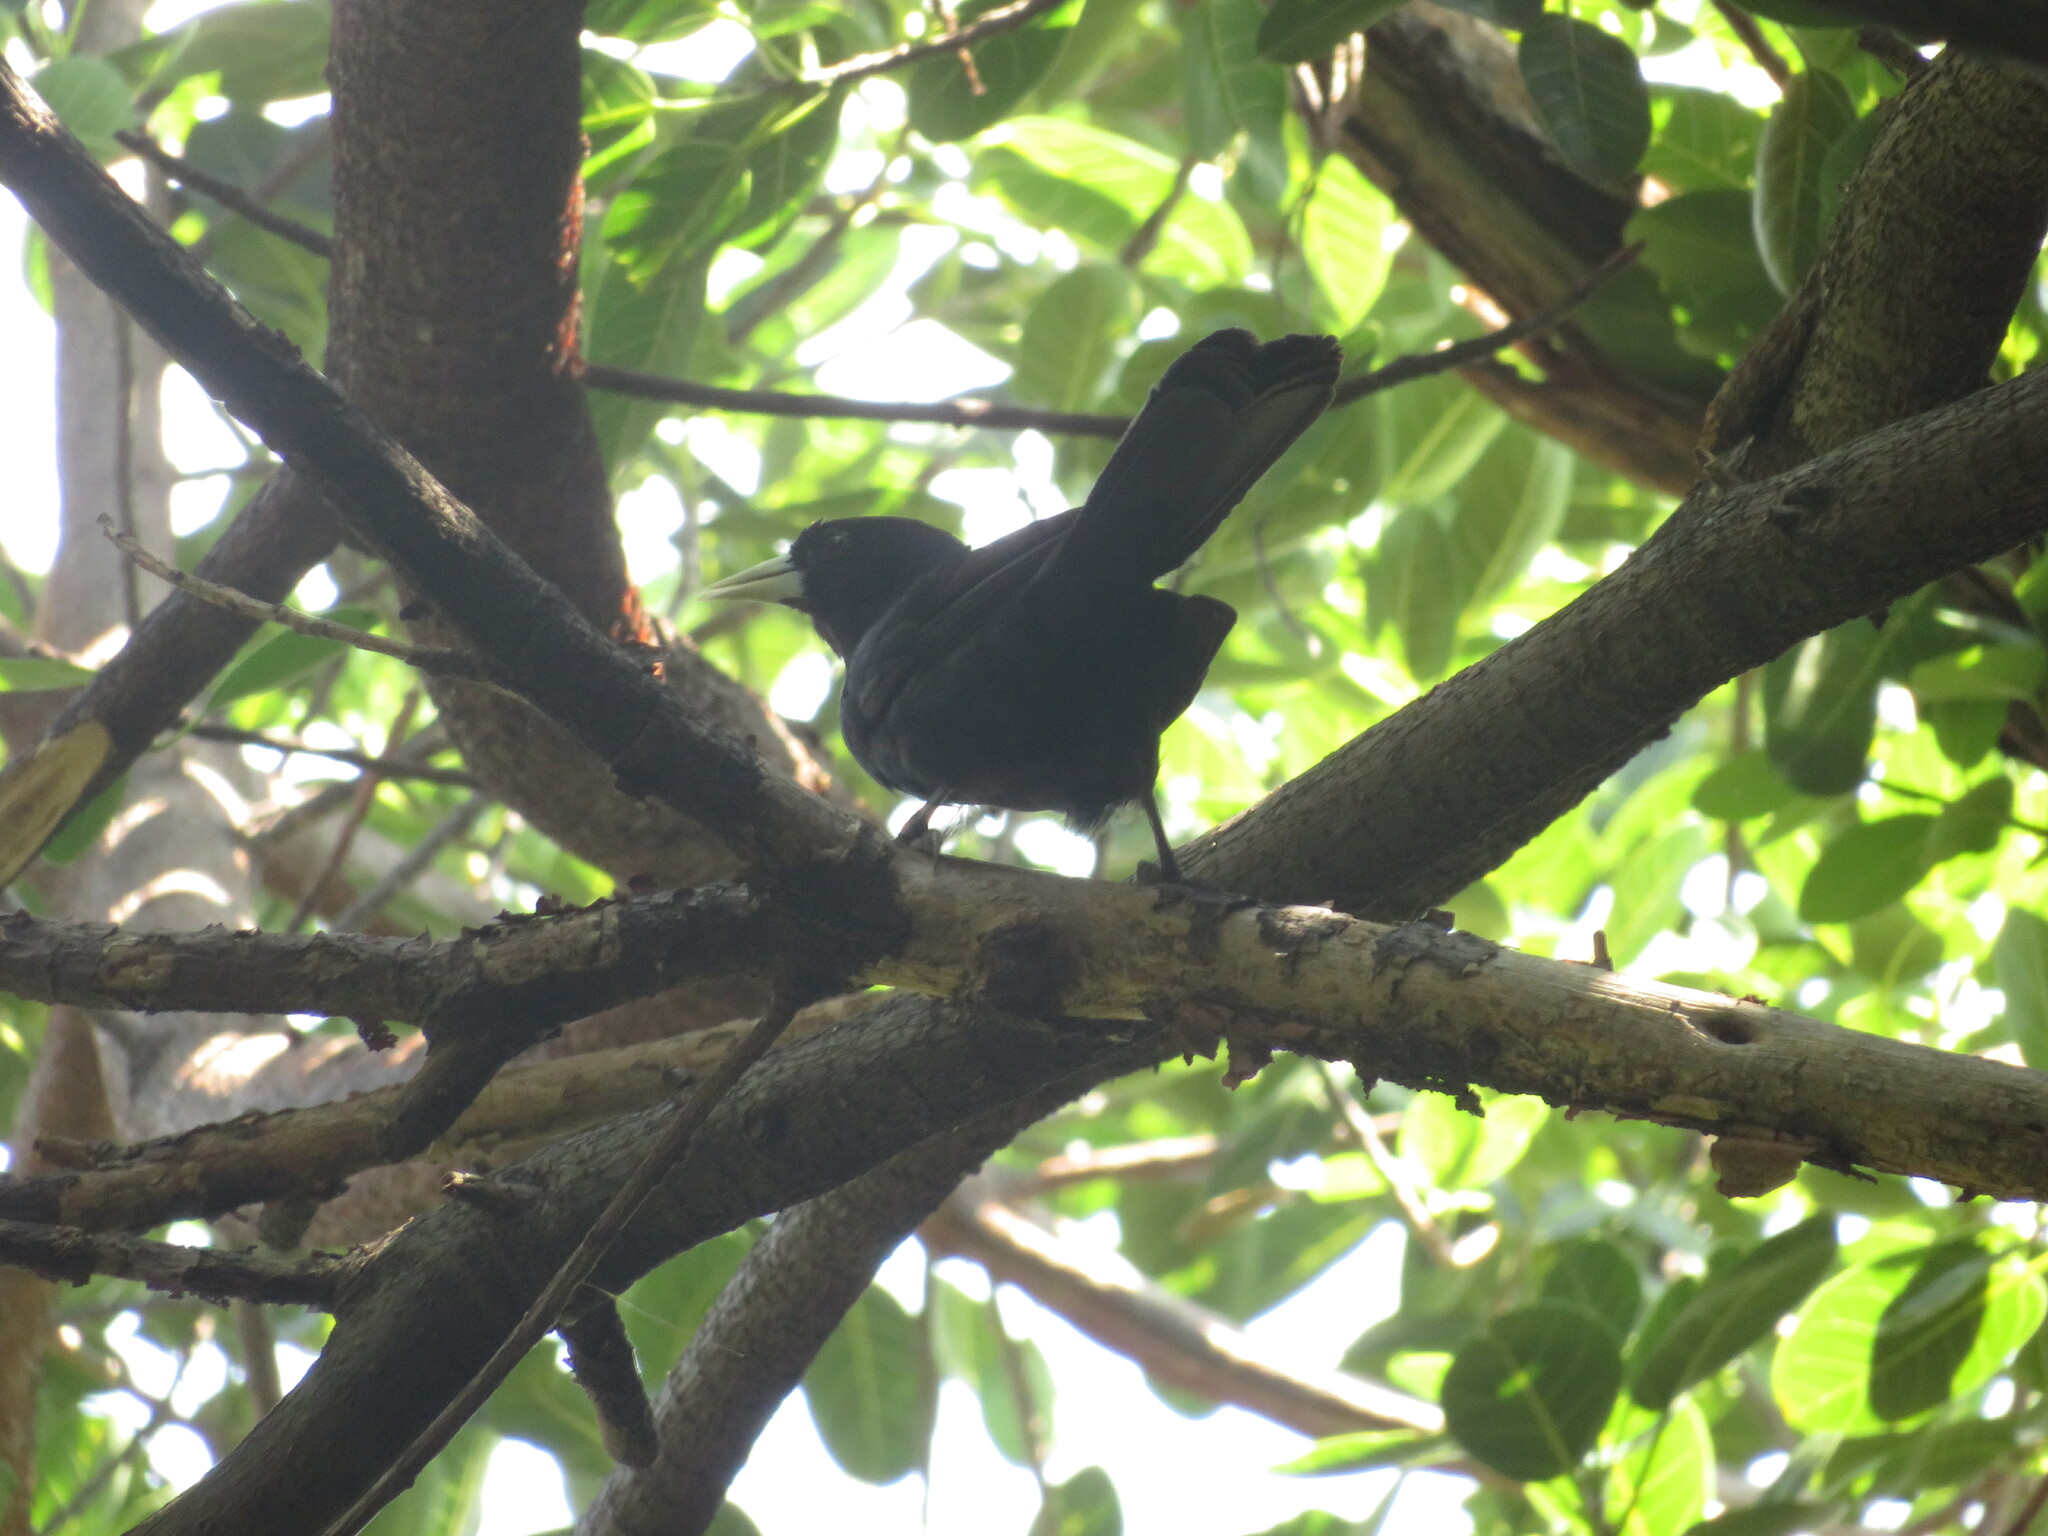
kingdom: Animalia
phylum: Chordata
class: Aves
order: Passeriformes
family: Icteridae
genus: Cacicus
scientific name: Cacicus solitarius
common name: Solitary cacique
